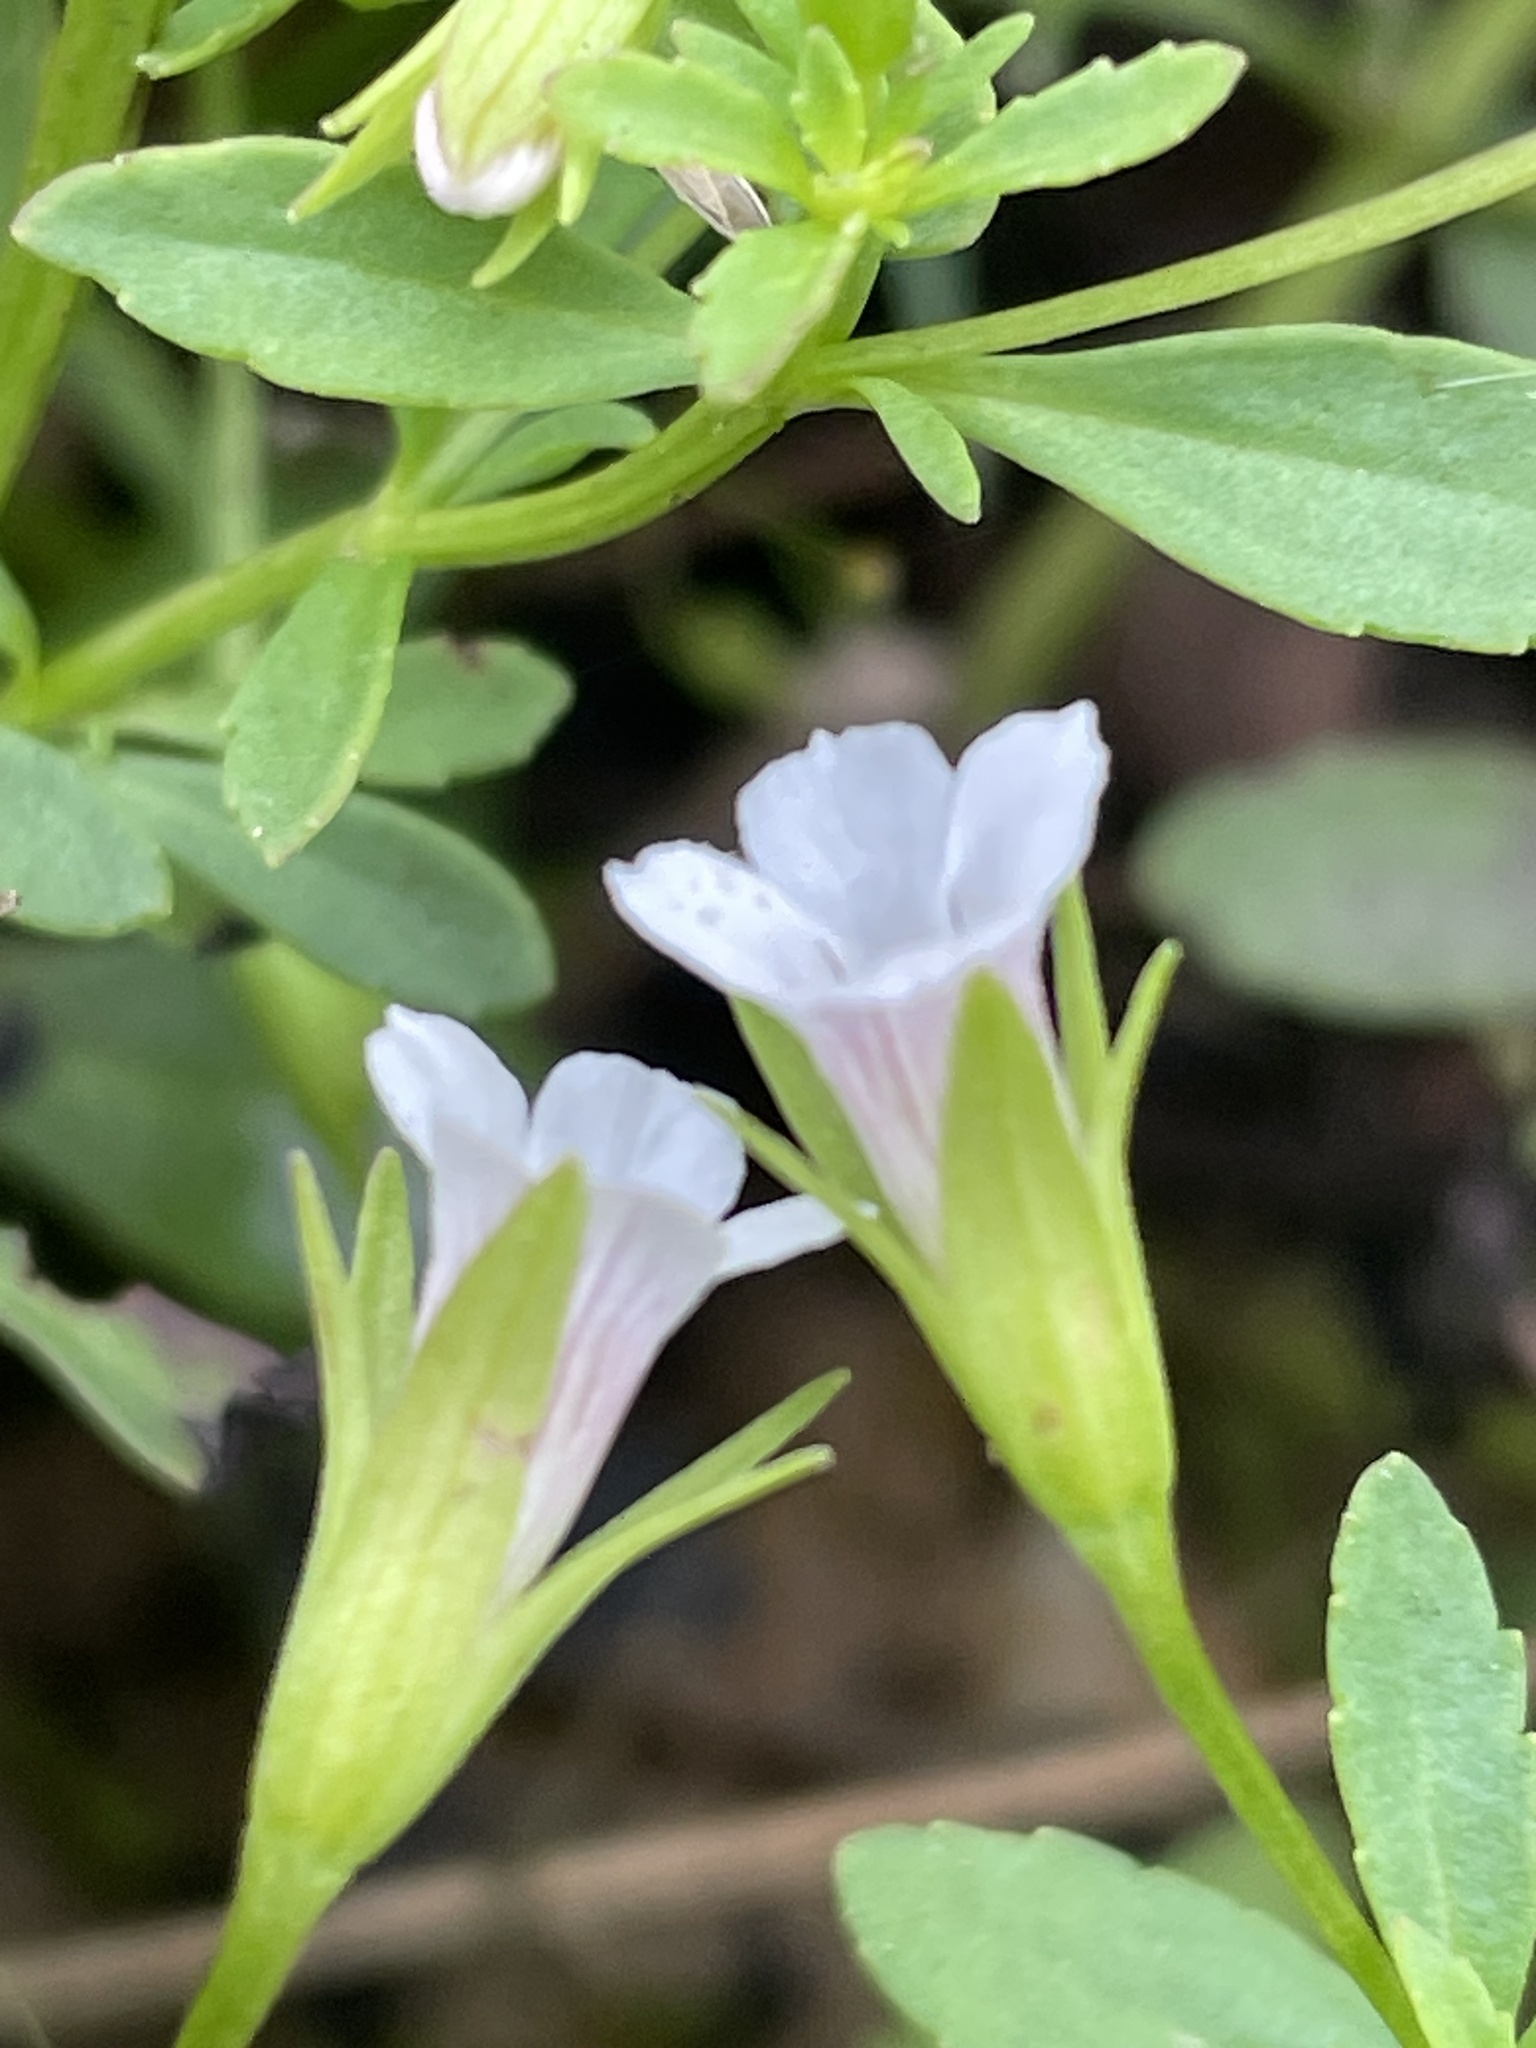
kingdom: Plantae
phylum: Tracheophyta
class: Magnoliopsida
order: Lamiales
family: Plantaginaceae
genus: Mecardonia
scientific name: Mecardonia acuminata
